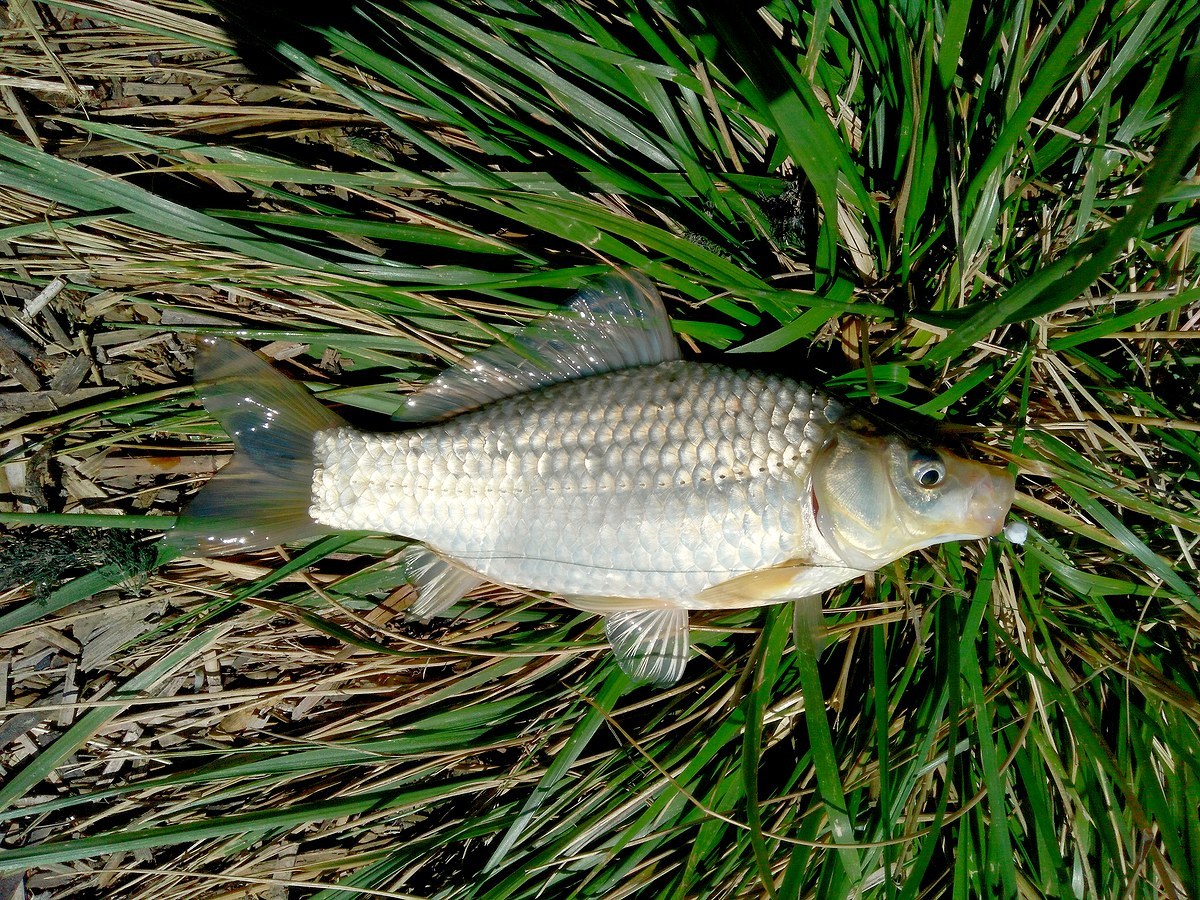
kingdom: Animalia
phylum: Chordata
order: Cypriniformes
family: Cyprinidae
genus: Carassius
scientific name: Carassius gibelio
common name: Prussian carp
